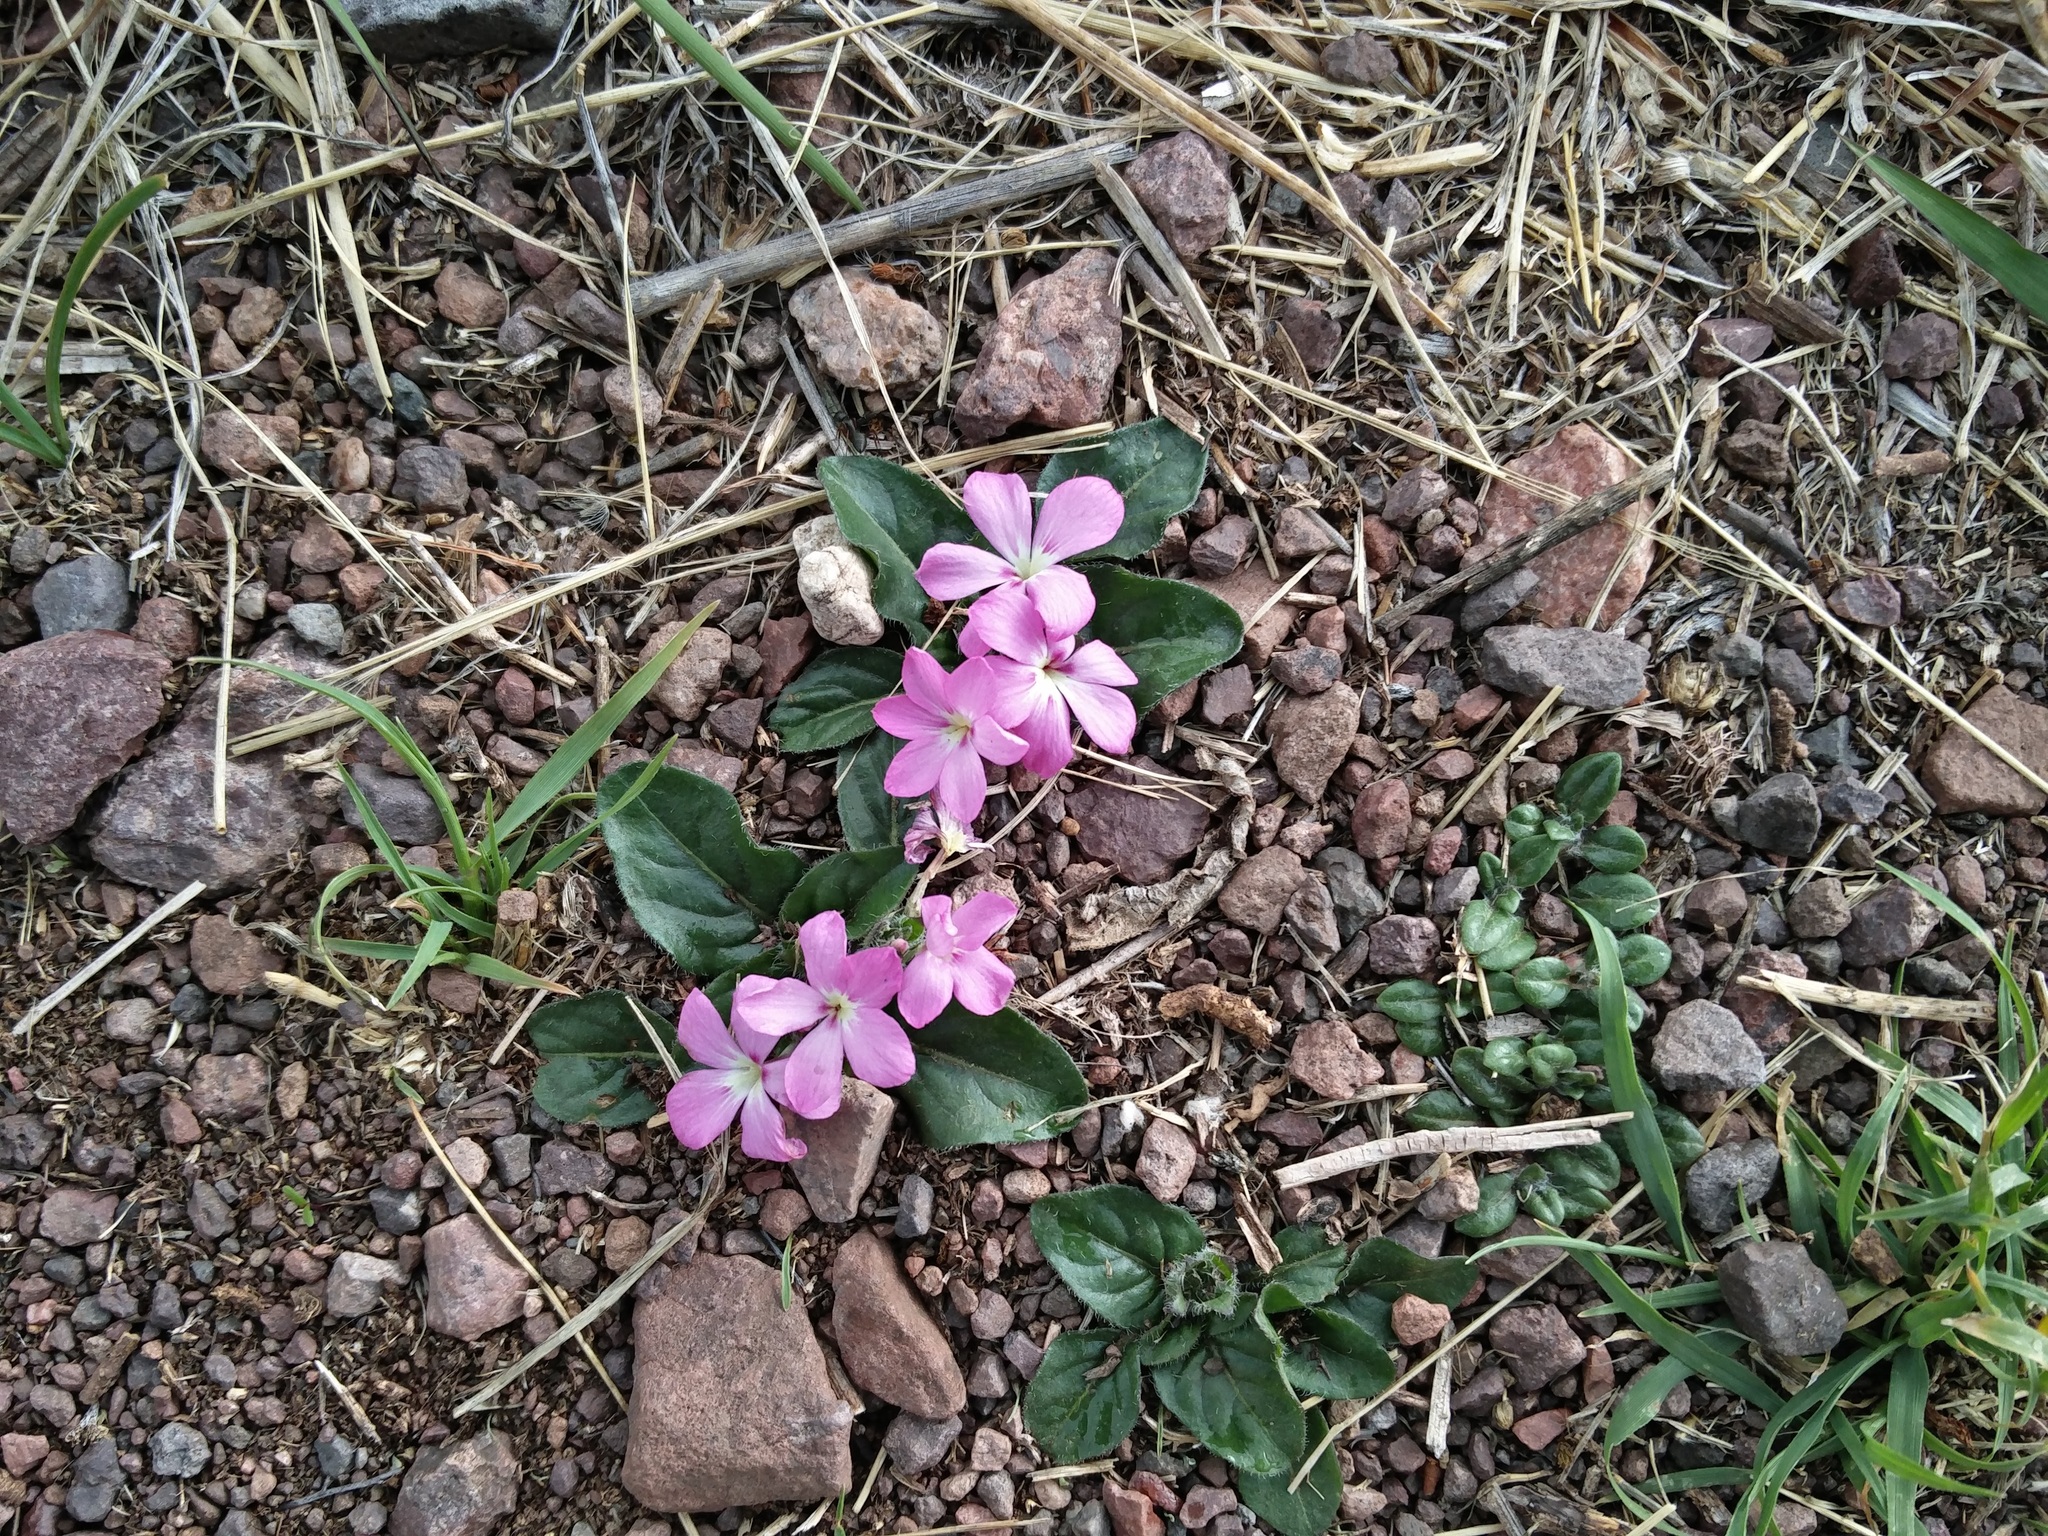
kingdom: Plantae
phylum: Tracheophyta
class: Magnoliopsida
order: Lamiales
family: Acanthaceae
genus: Stenandrium
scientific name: Stenandrium dulce
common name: Pinklet
